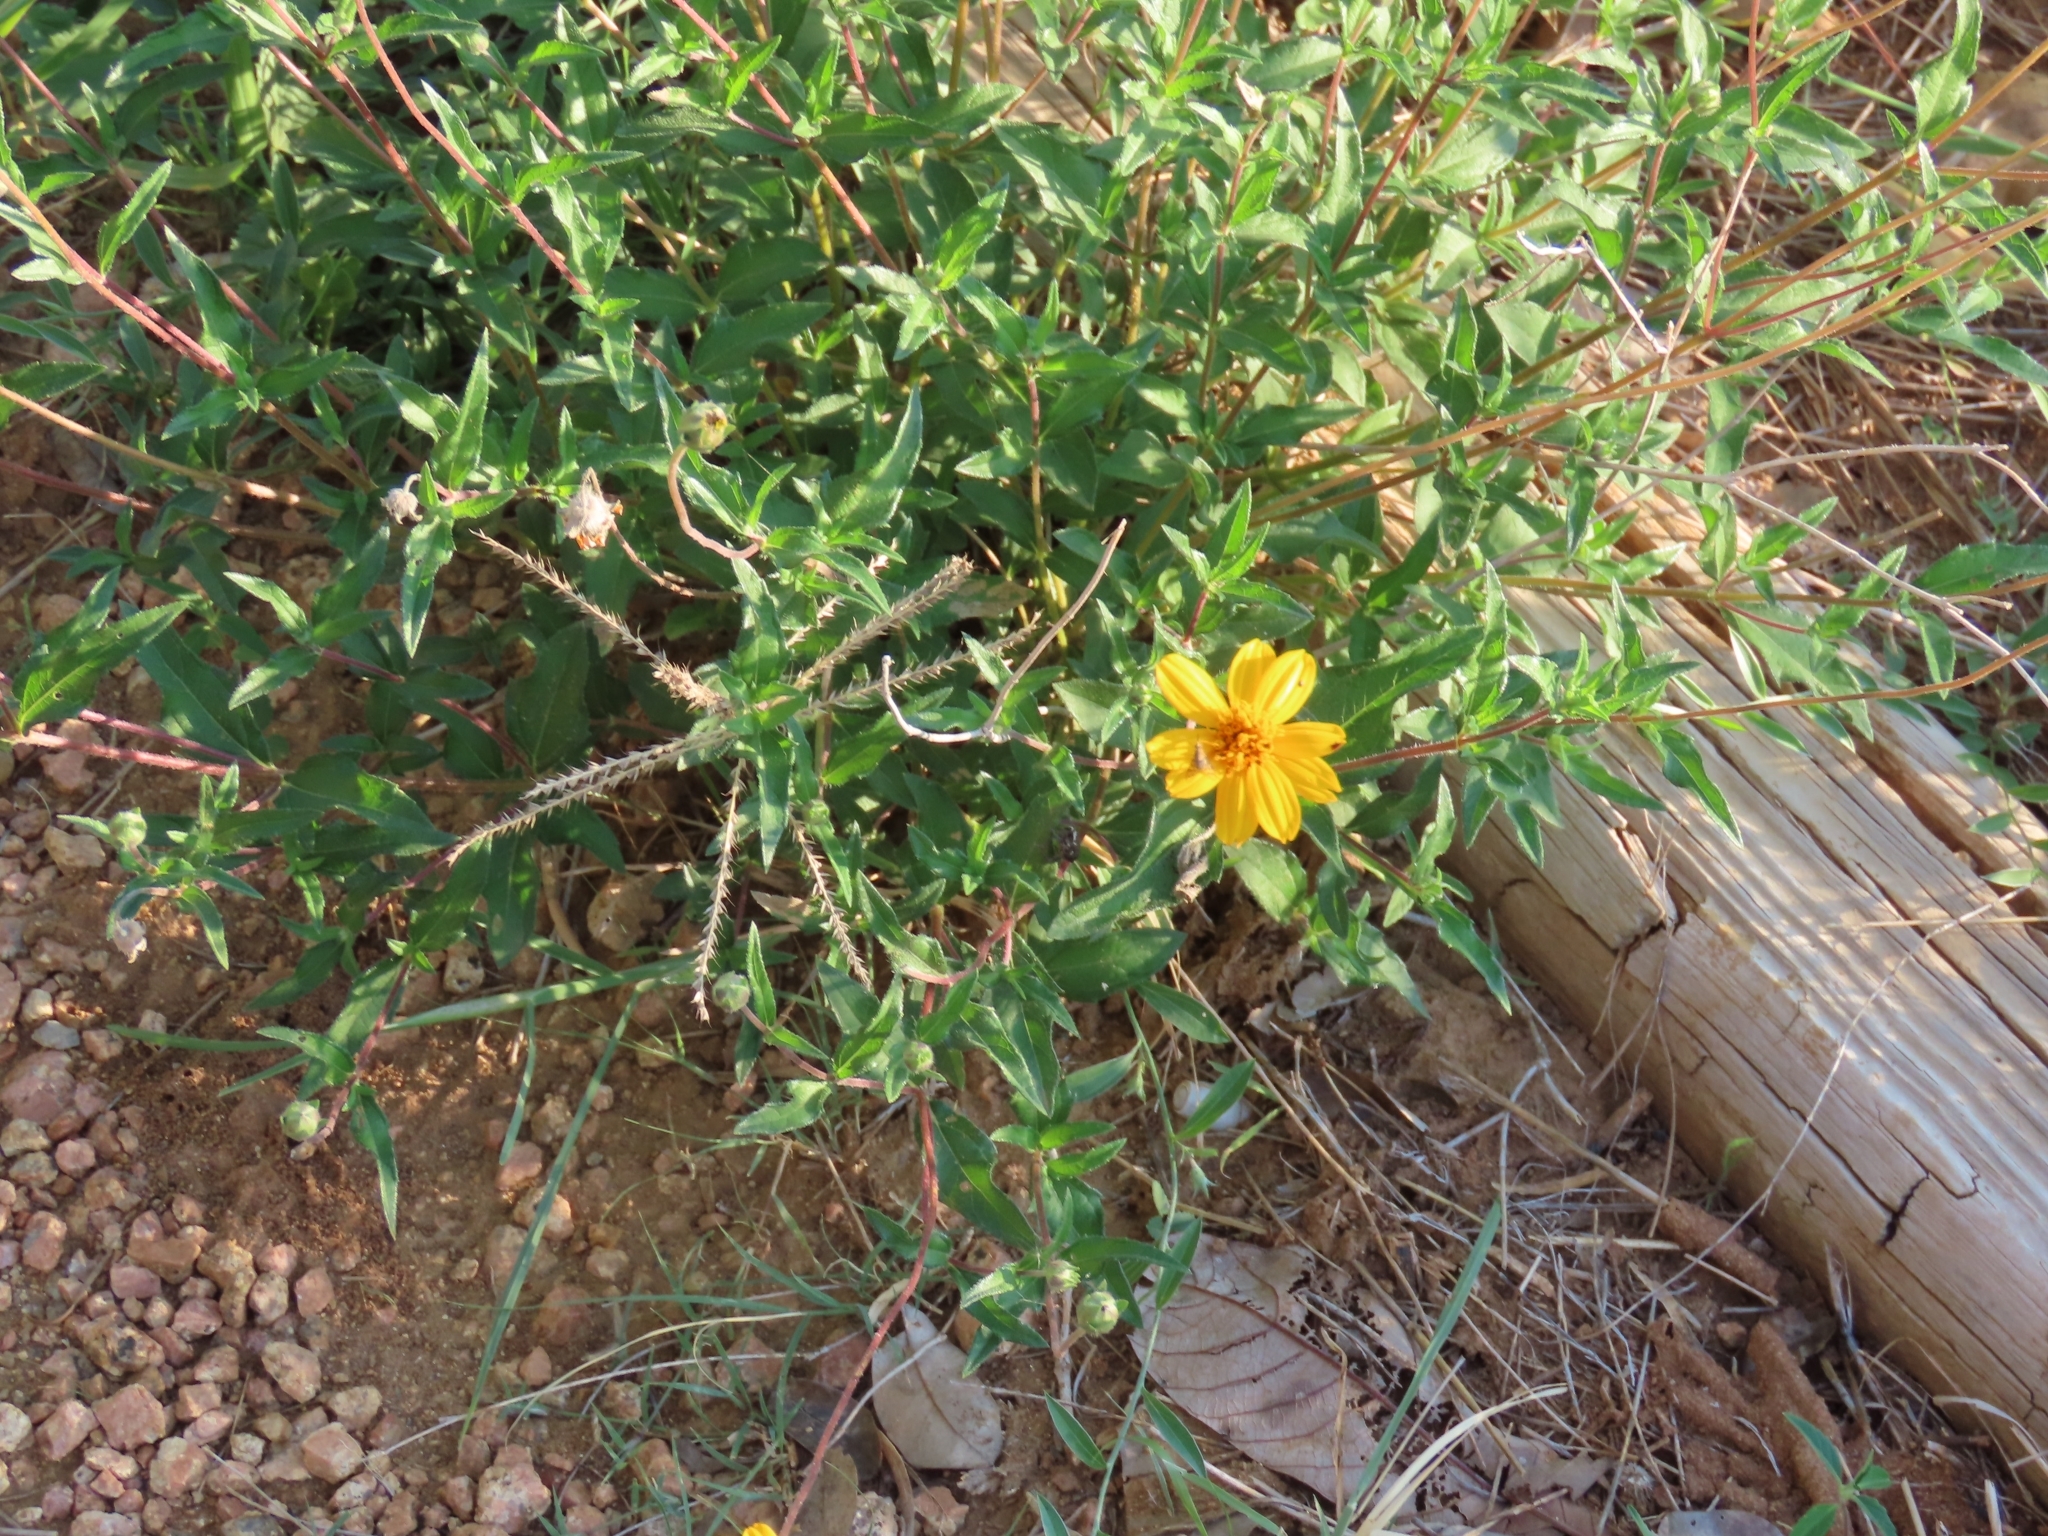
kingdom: Plantae
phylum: Tracheophyta
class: Magnoliopsida
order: Asterales
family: Asteraceae
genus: Wedelia
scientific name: Wedelia acapulcensis
